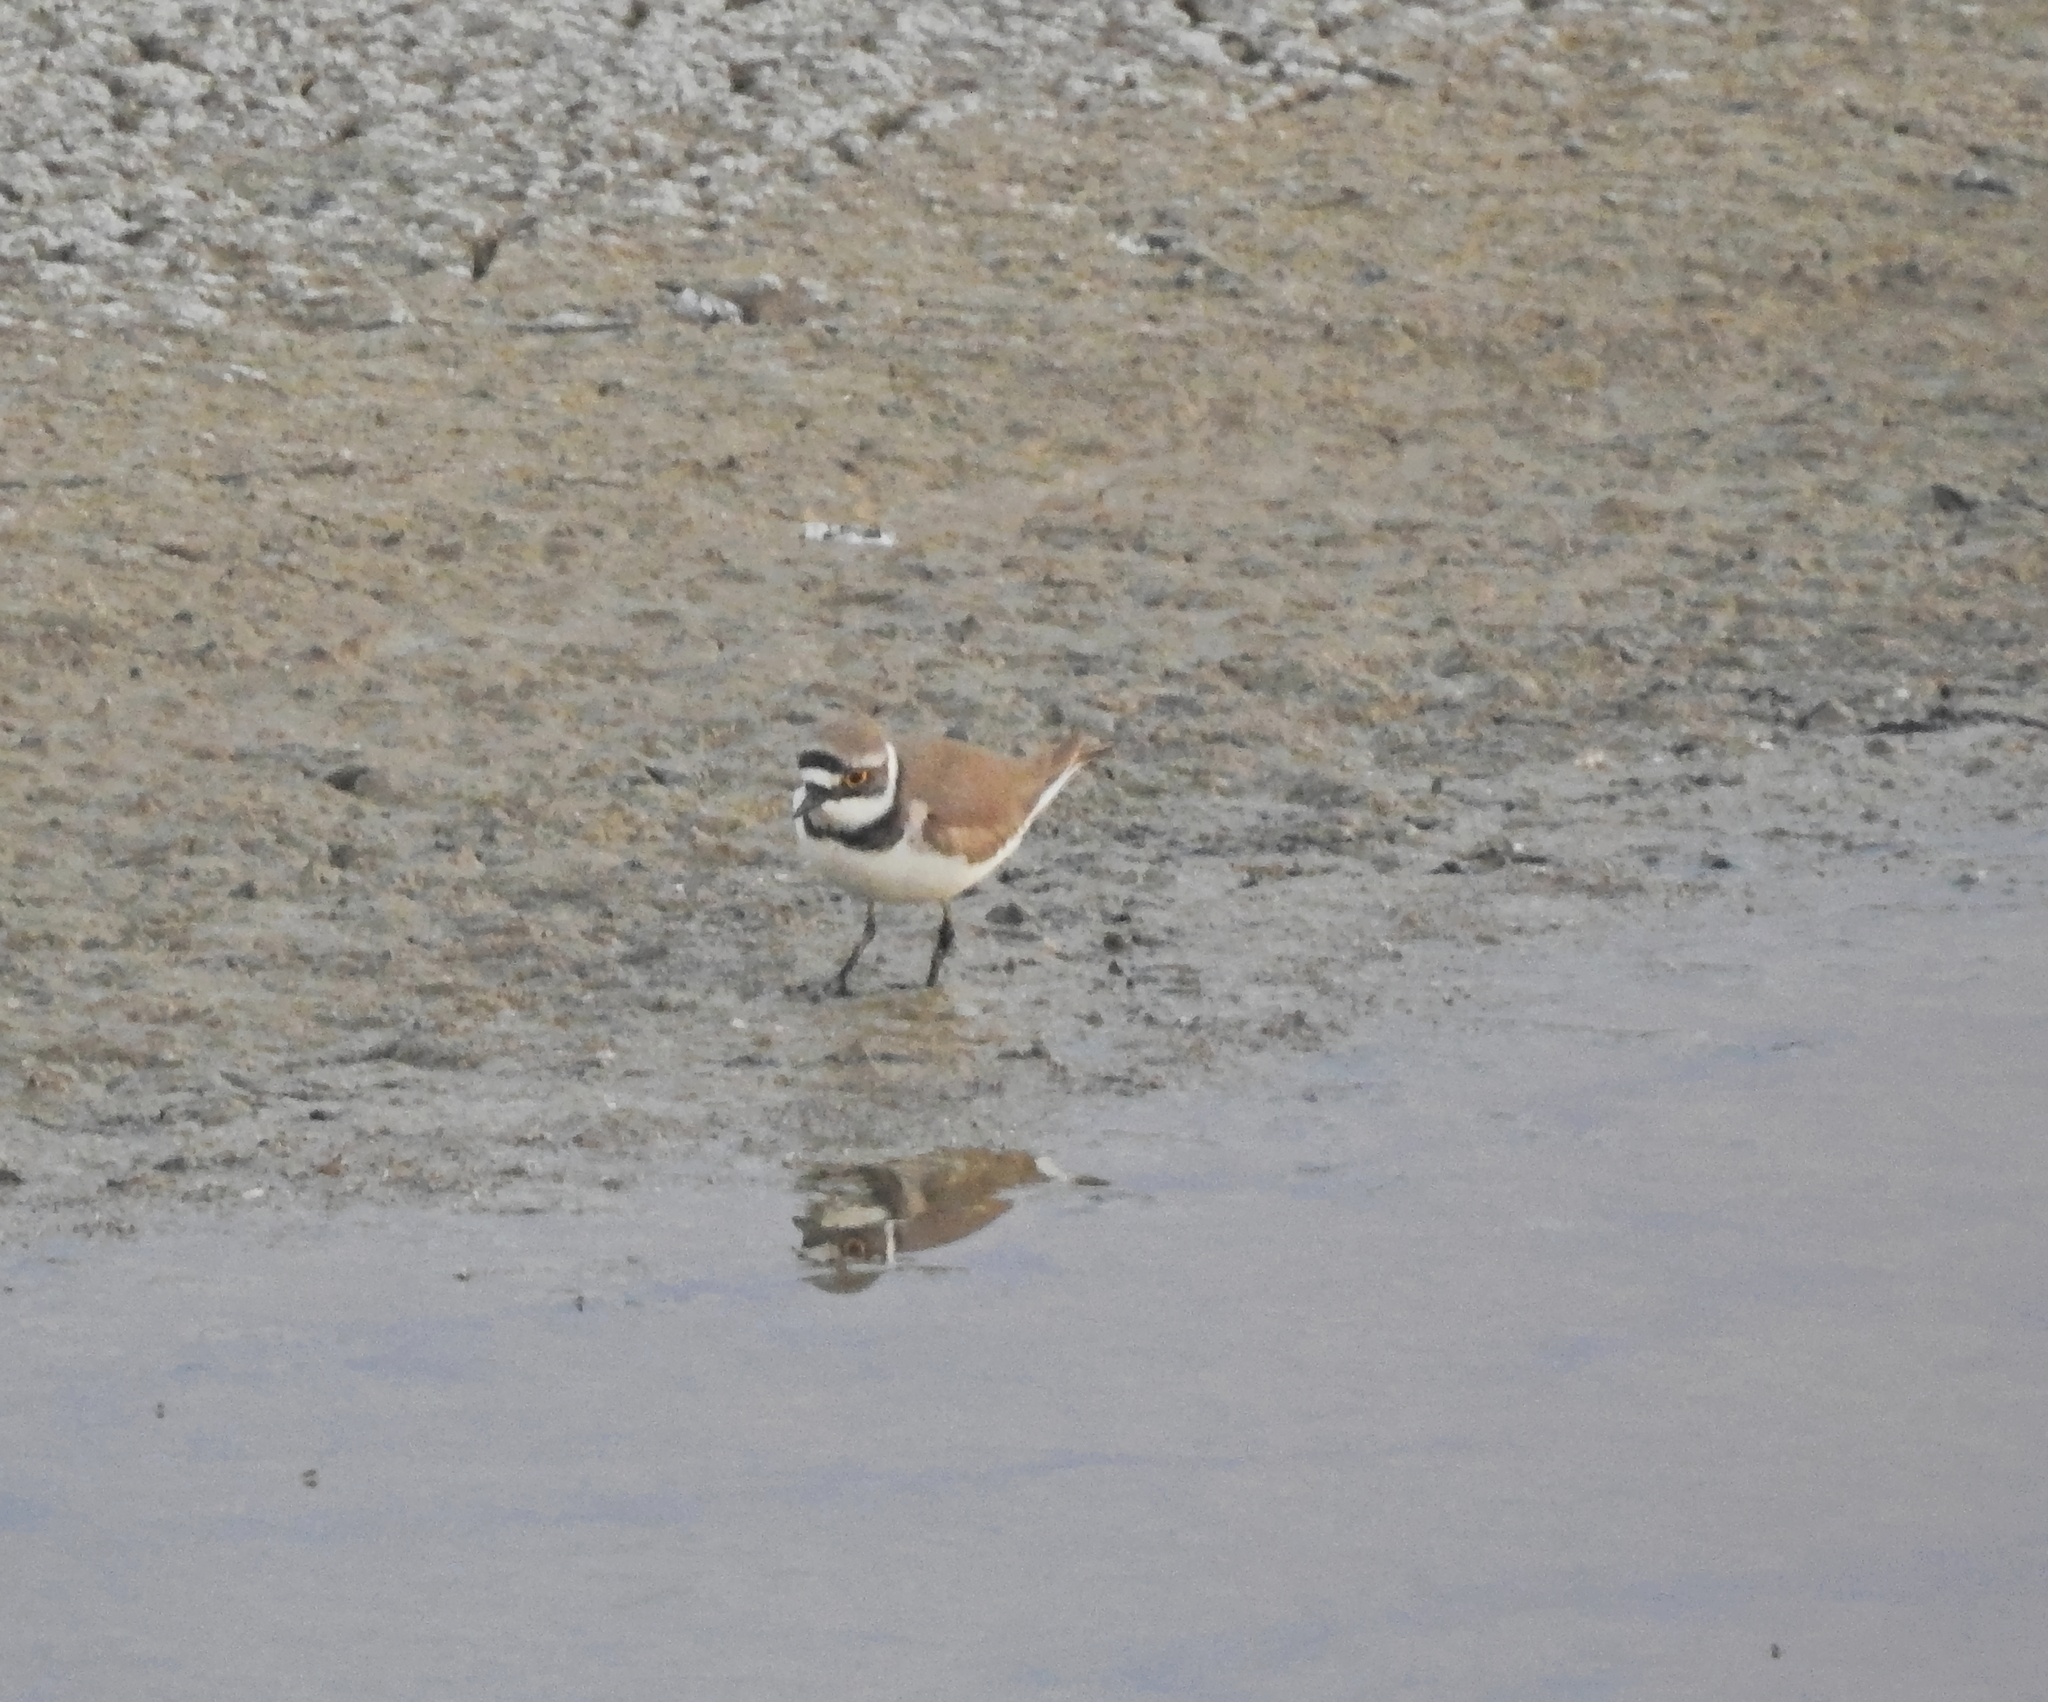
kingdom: Animalia
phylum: Chordata
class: Aves
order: Charadriiformes
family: Charadriidae
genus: Charadrius
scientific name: Charadrius dubius
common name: Little ringed plover
